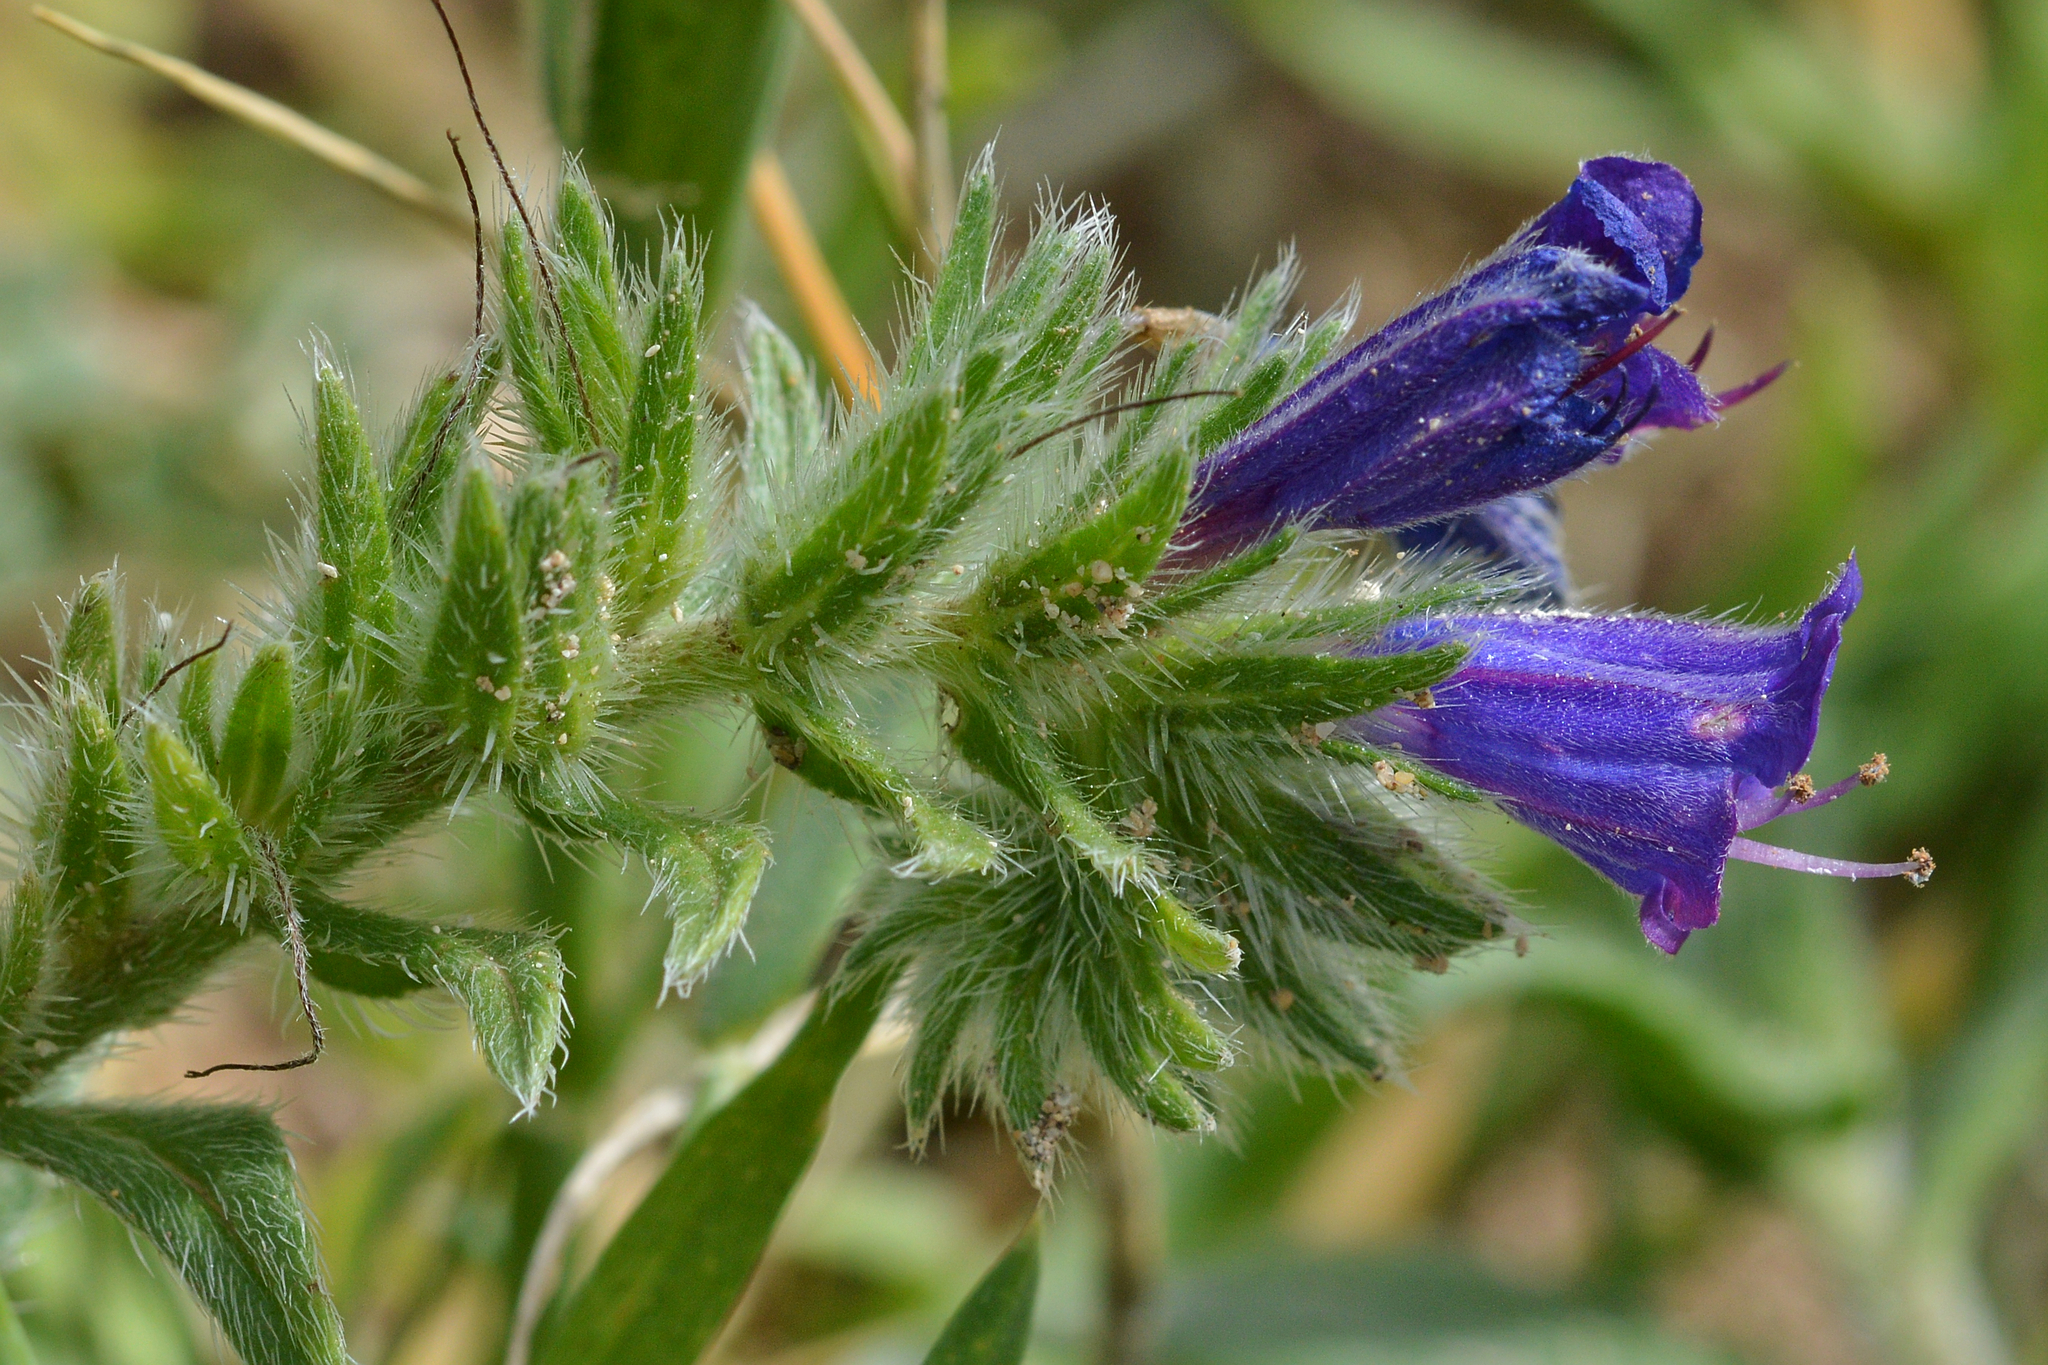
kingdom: Plantae
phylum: Tracheophyta
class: Magnoliopsida
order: Boraginales
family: Boraginaceae
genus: Echium
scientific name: Echium sabulicola
